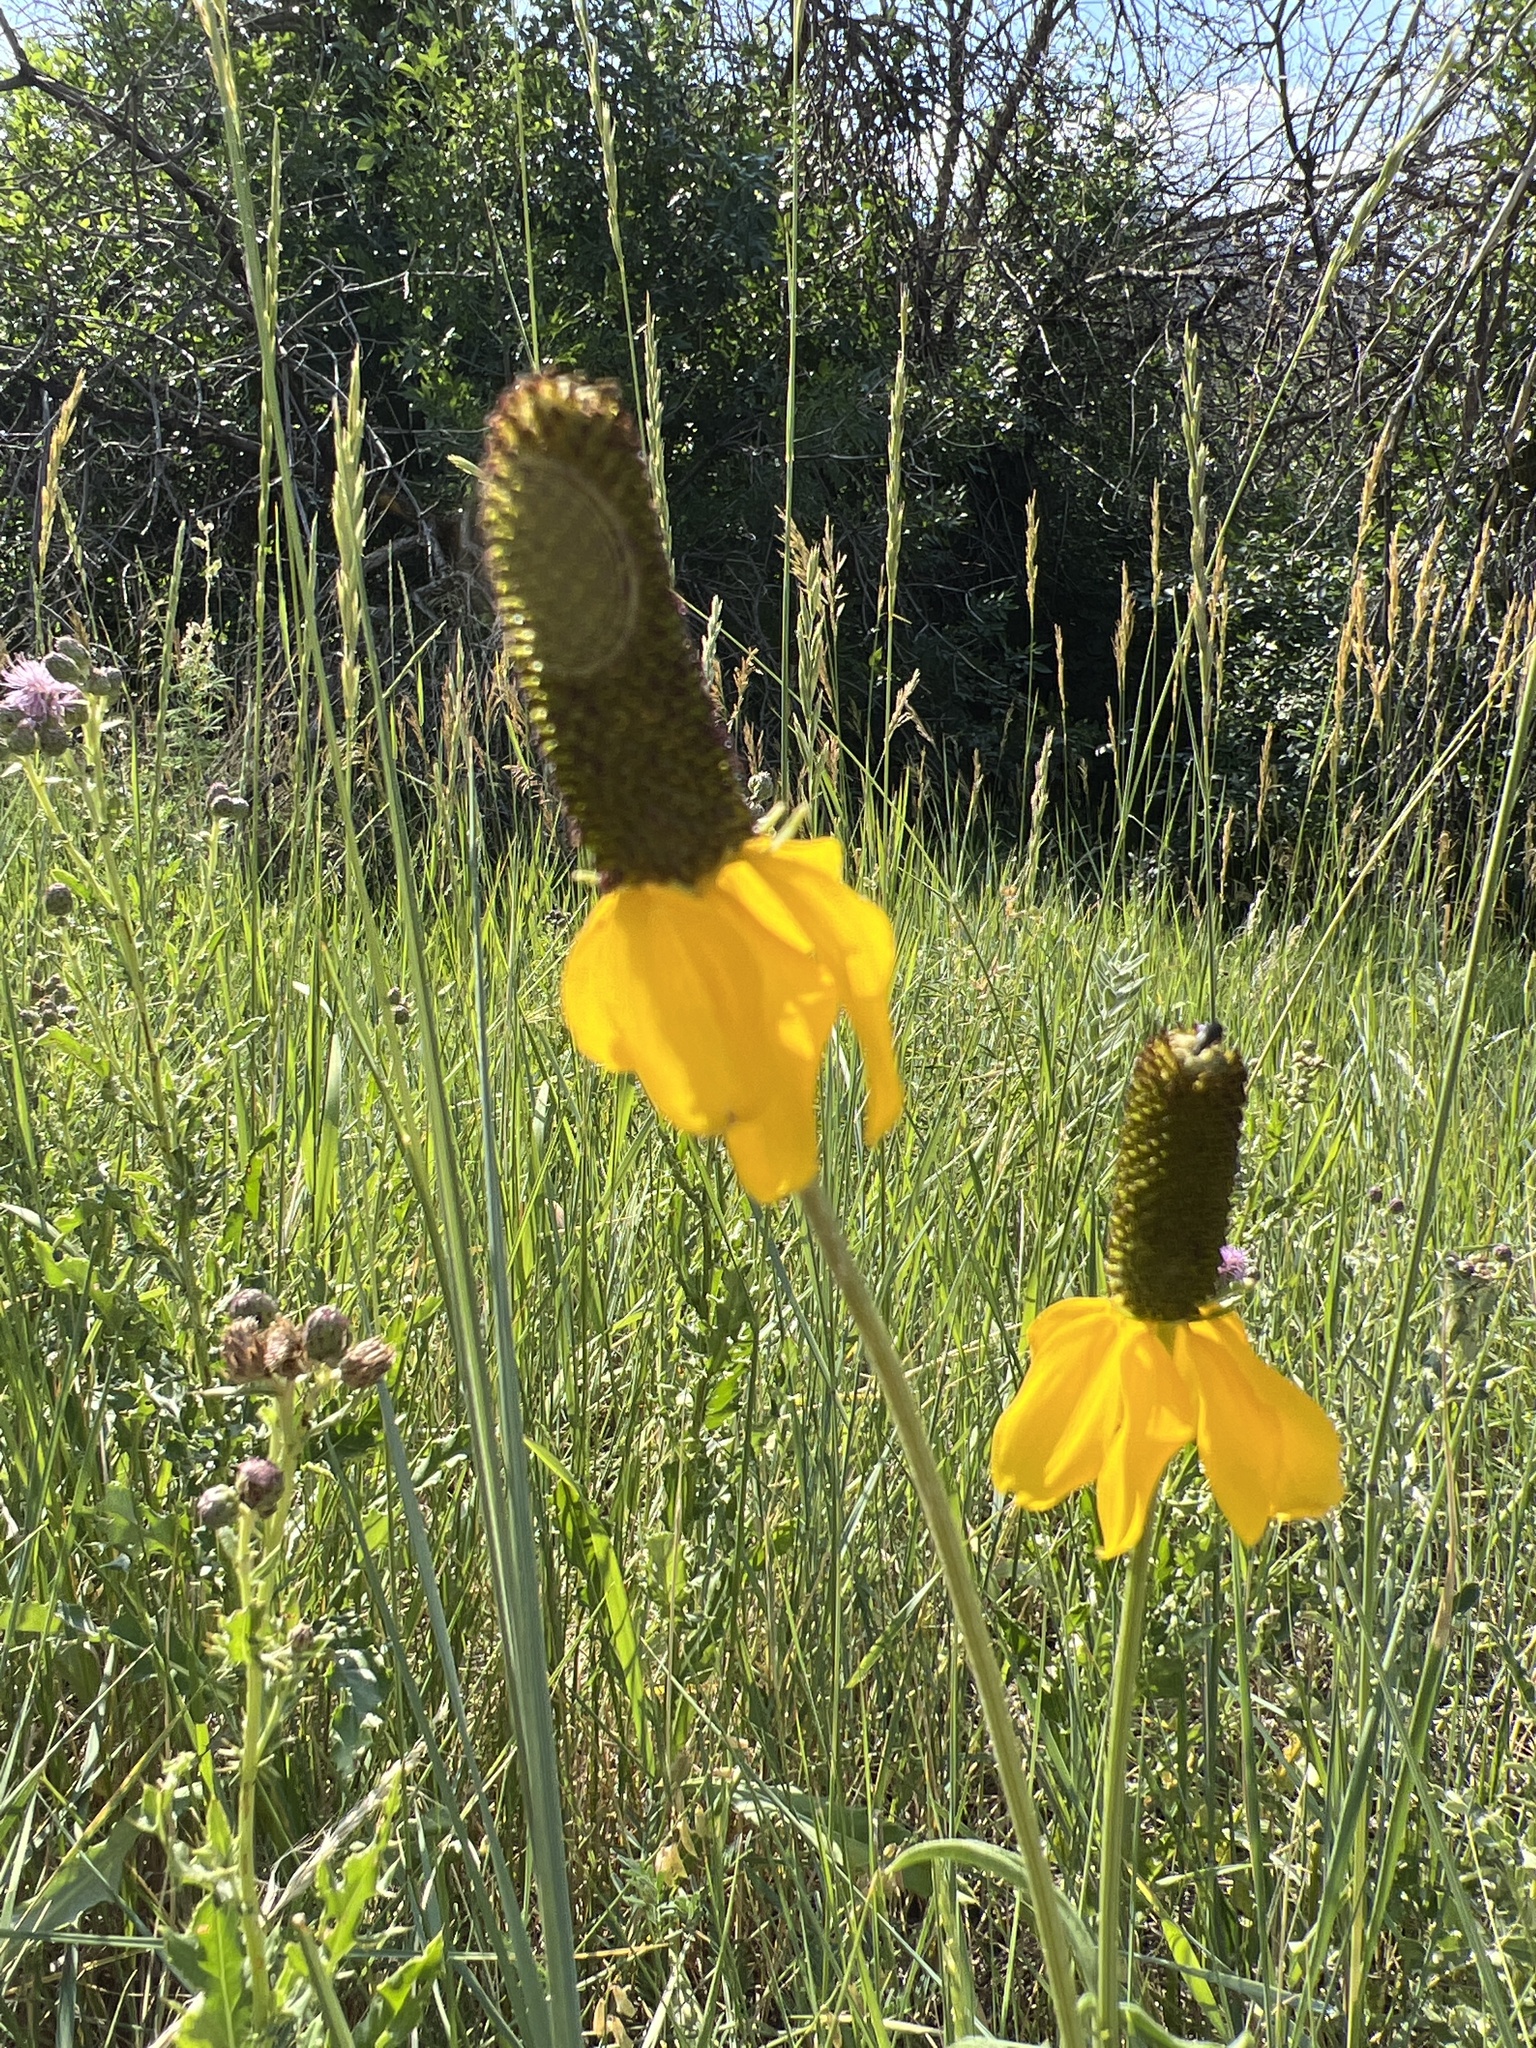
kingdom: Plantae
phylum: Tracheophyta
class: Magnoliopsida
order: Asterales
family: Asteraceae
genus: Ratibida
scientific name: Ratibida columnifera
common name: Prairie coneflower
